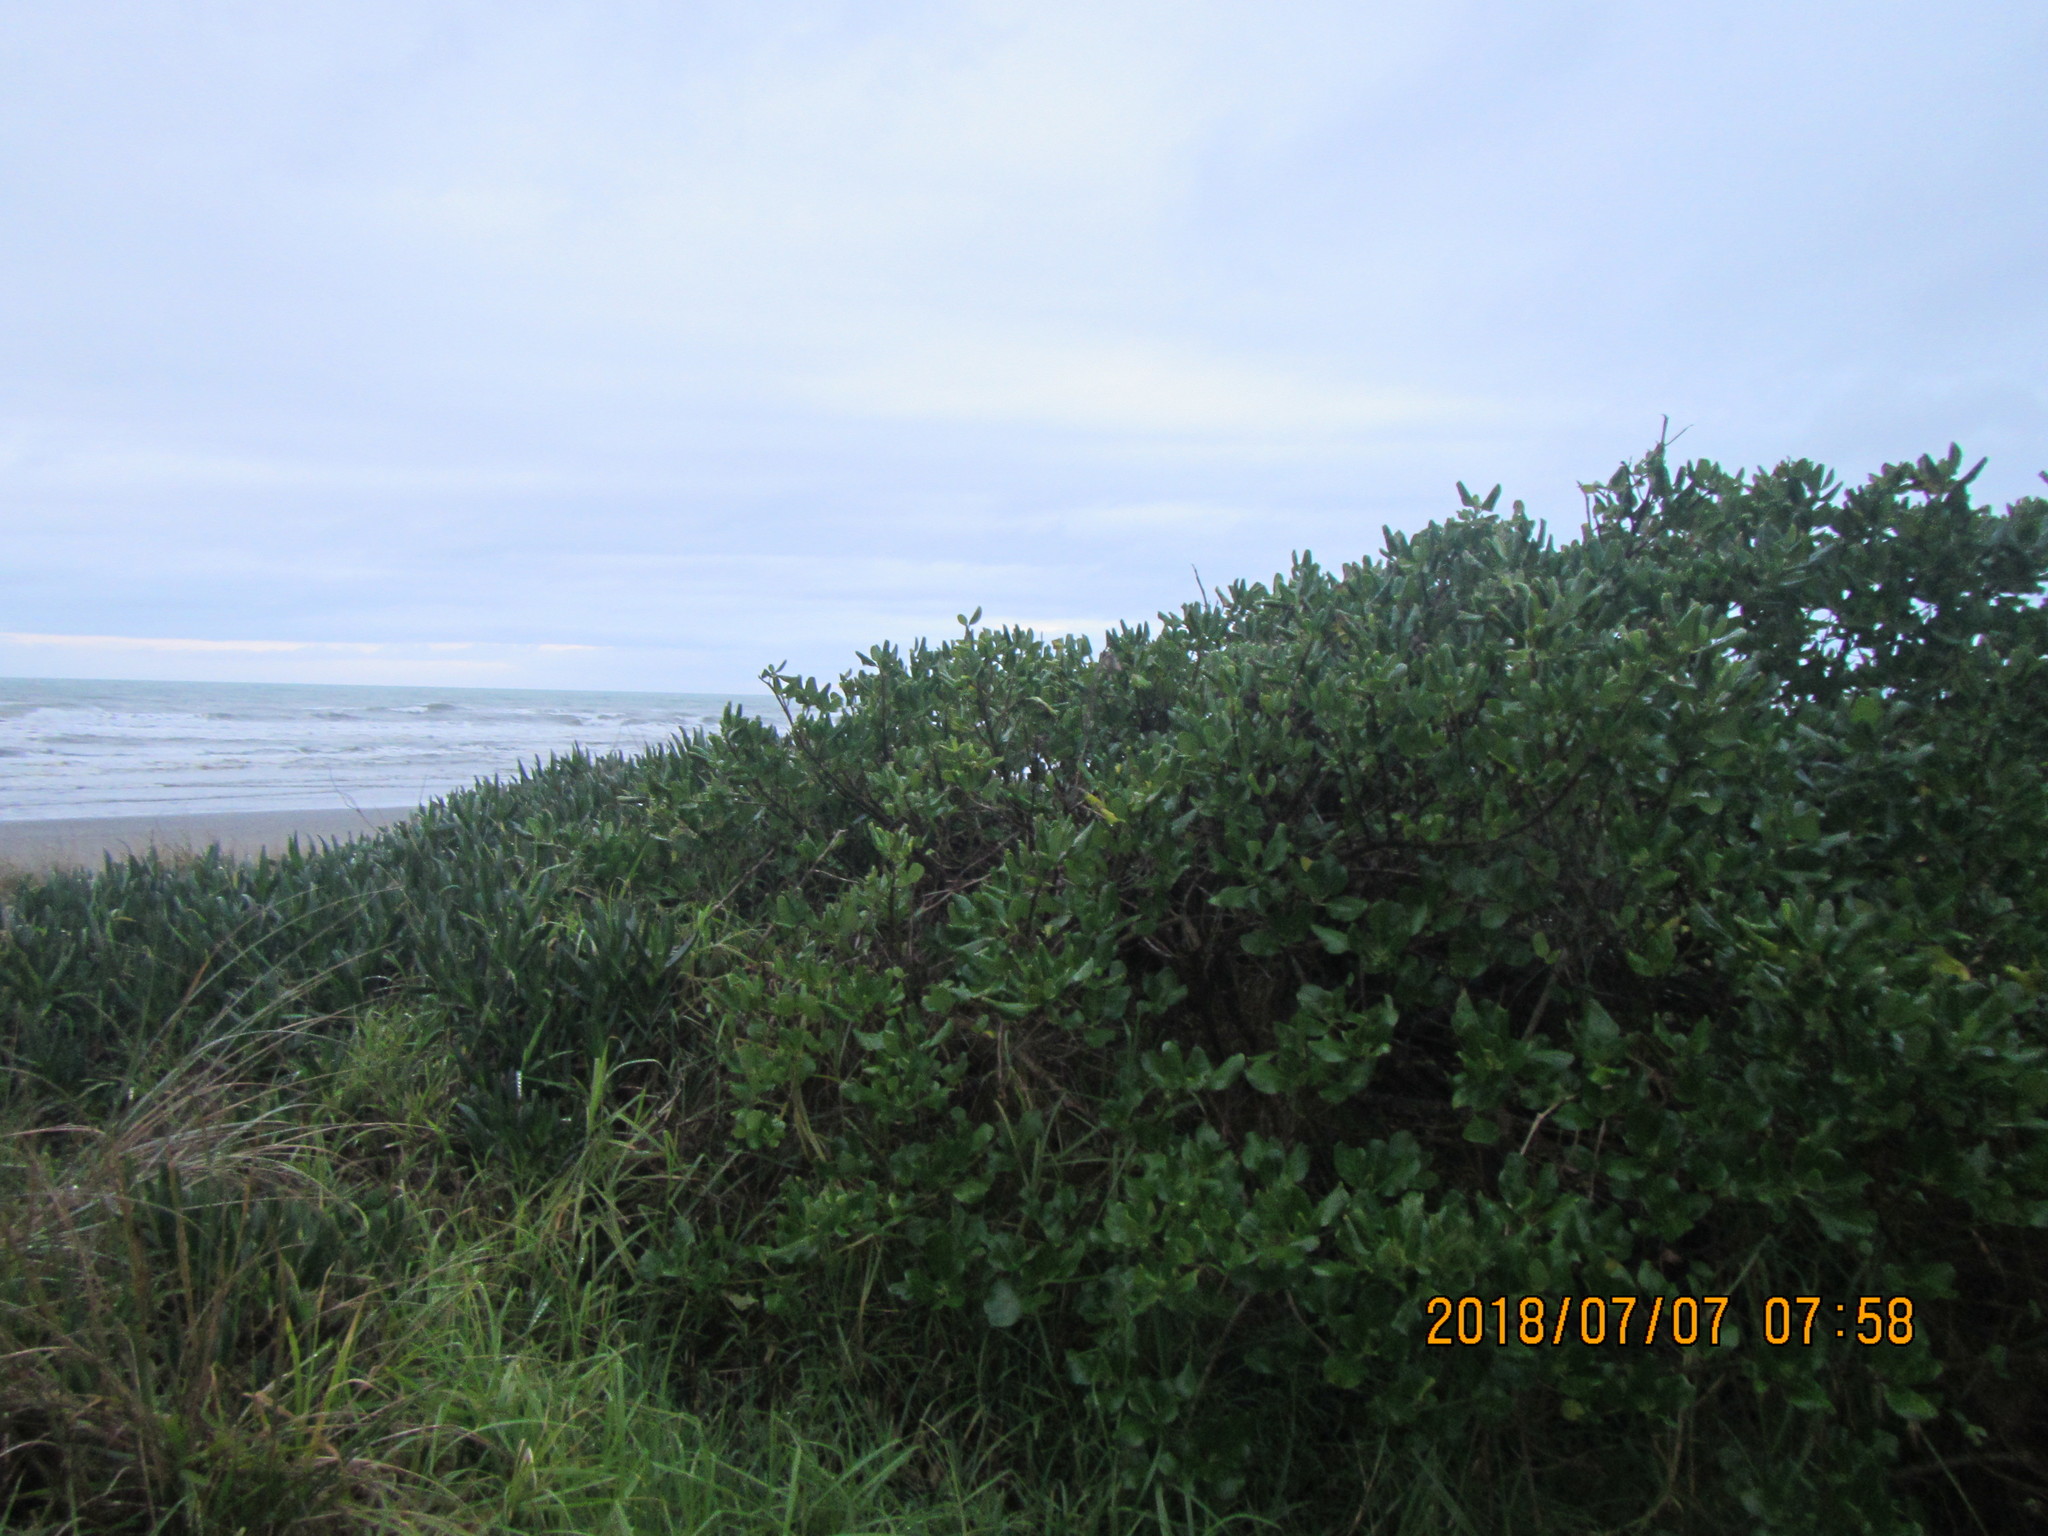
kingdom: Plantae
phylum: Tracheophyta
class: Magnoliopsida
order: Gentianales
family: Rubiaceae
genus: Coprosma
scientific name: Coprosma repens
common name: Tree bedstraw
